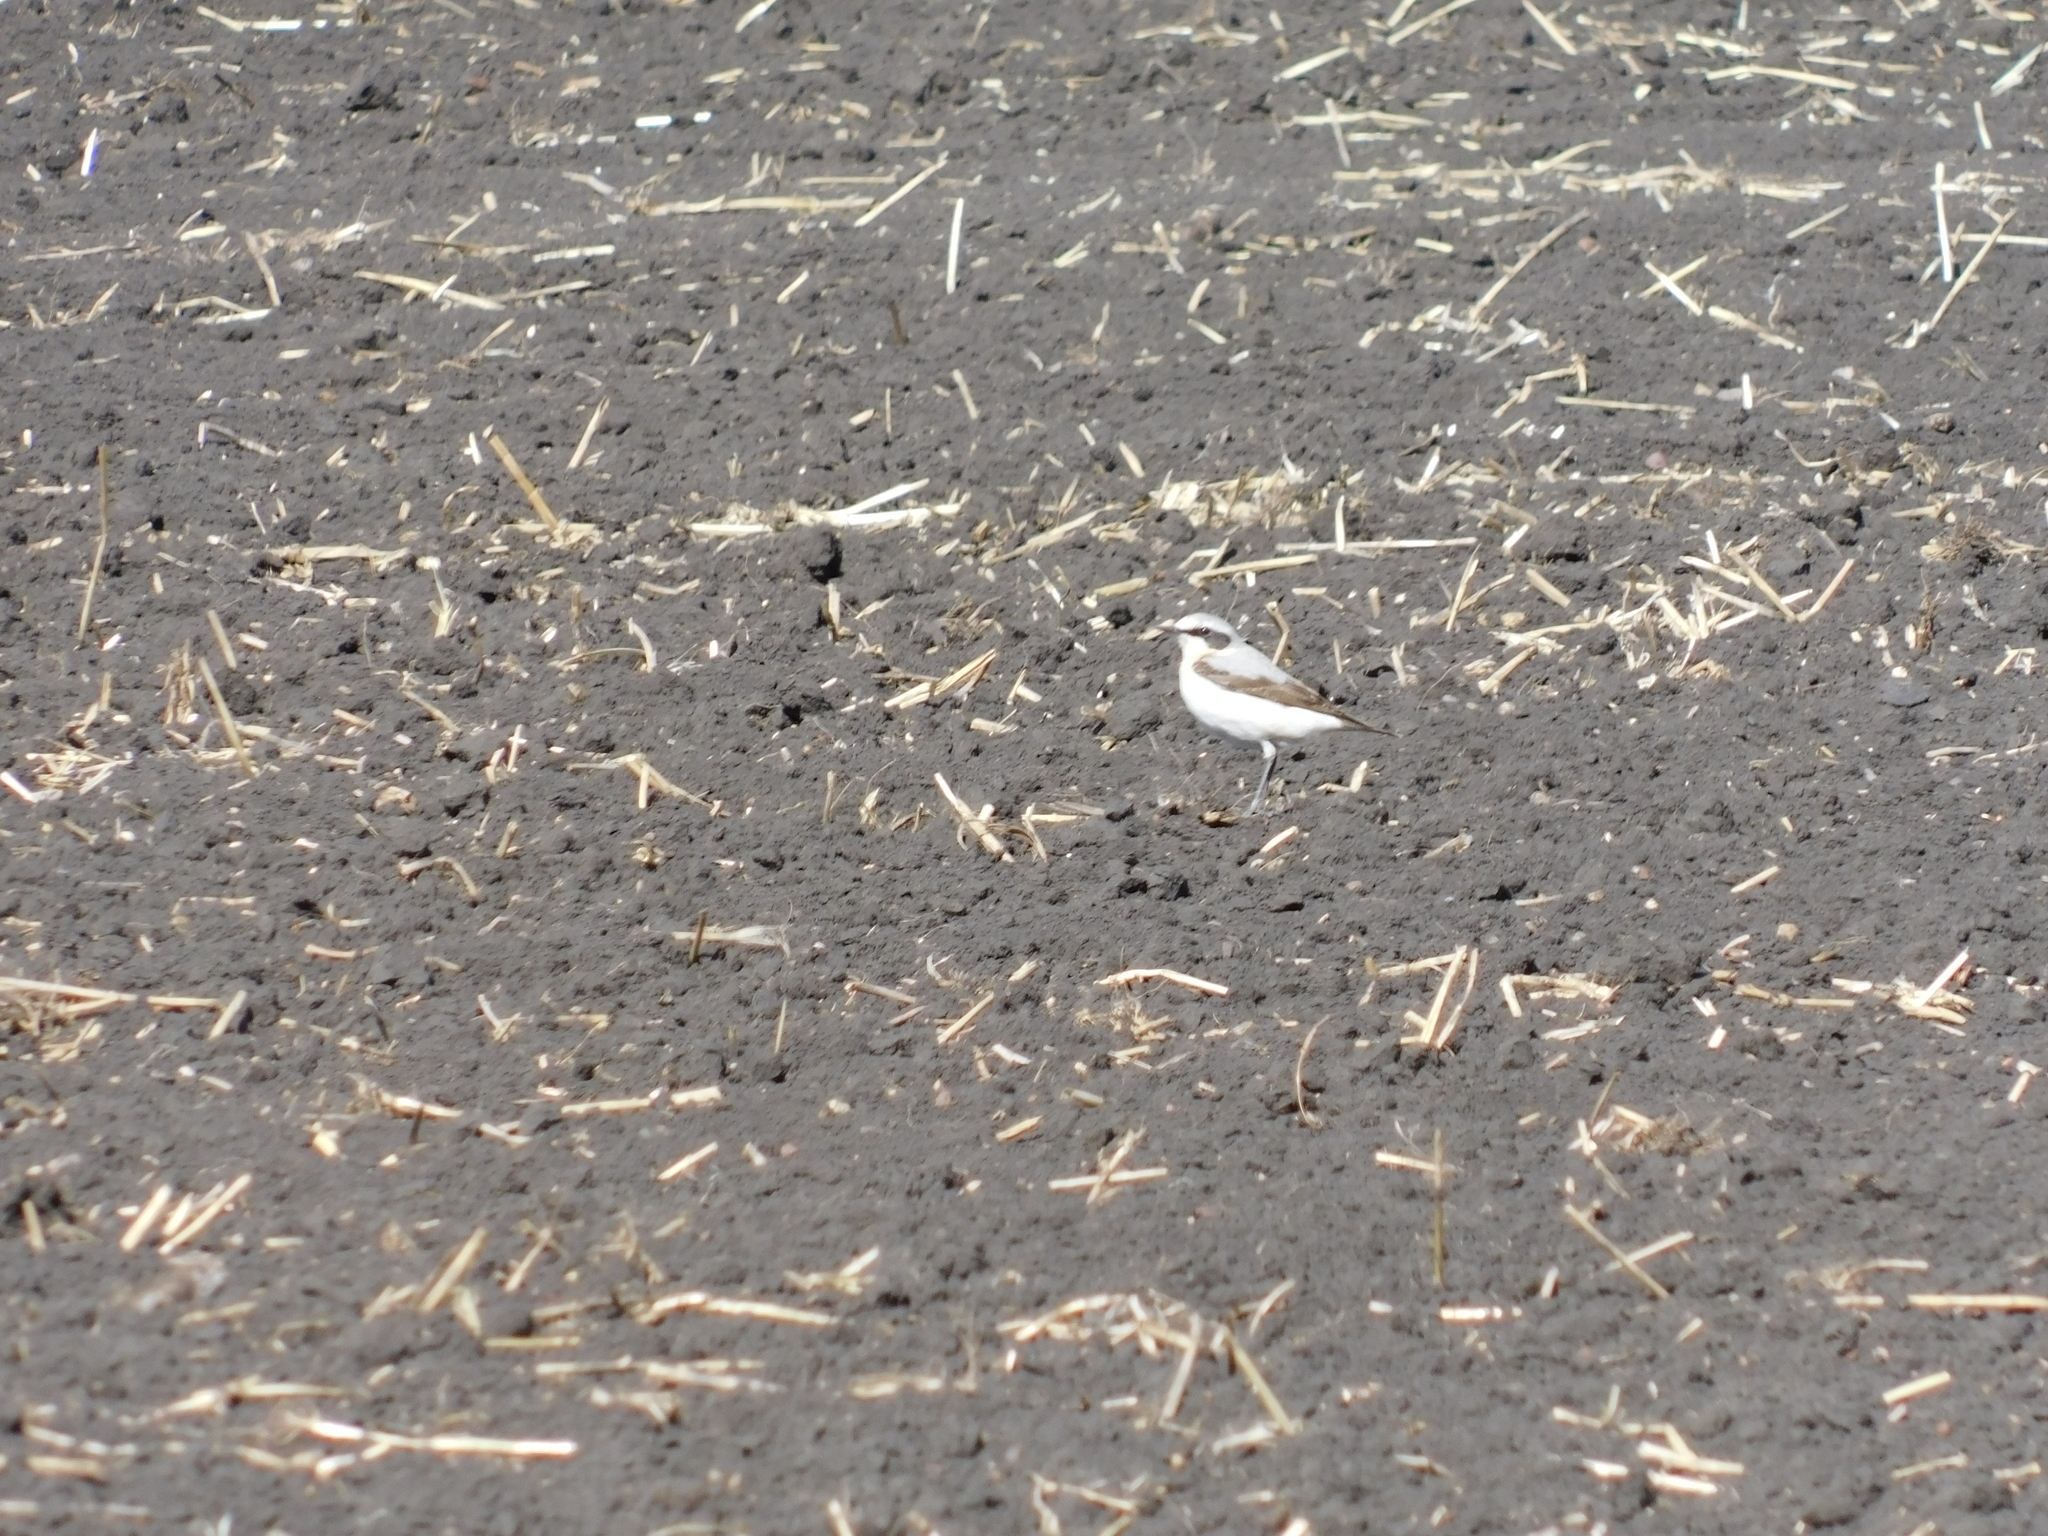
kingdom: Animalia
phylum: Chordata
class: Aves
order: Passeriformes
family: Muscicapidae
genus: Oenanthe
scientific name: Oenanthe oenanthe
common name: Northern wheatear
